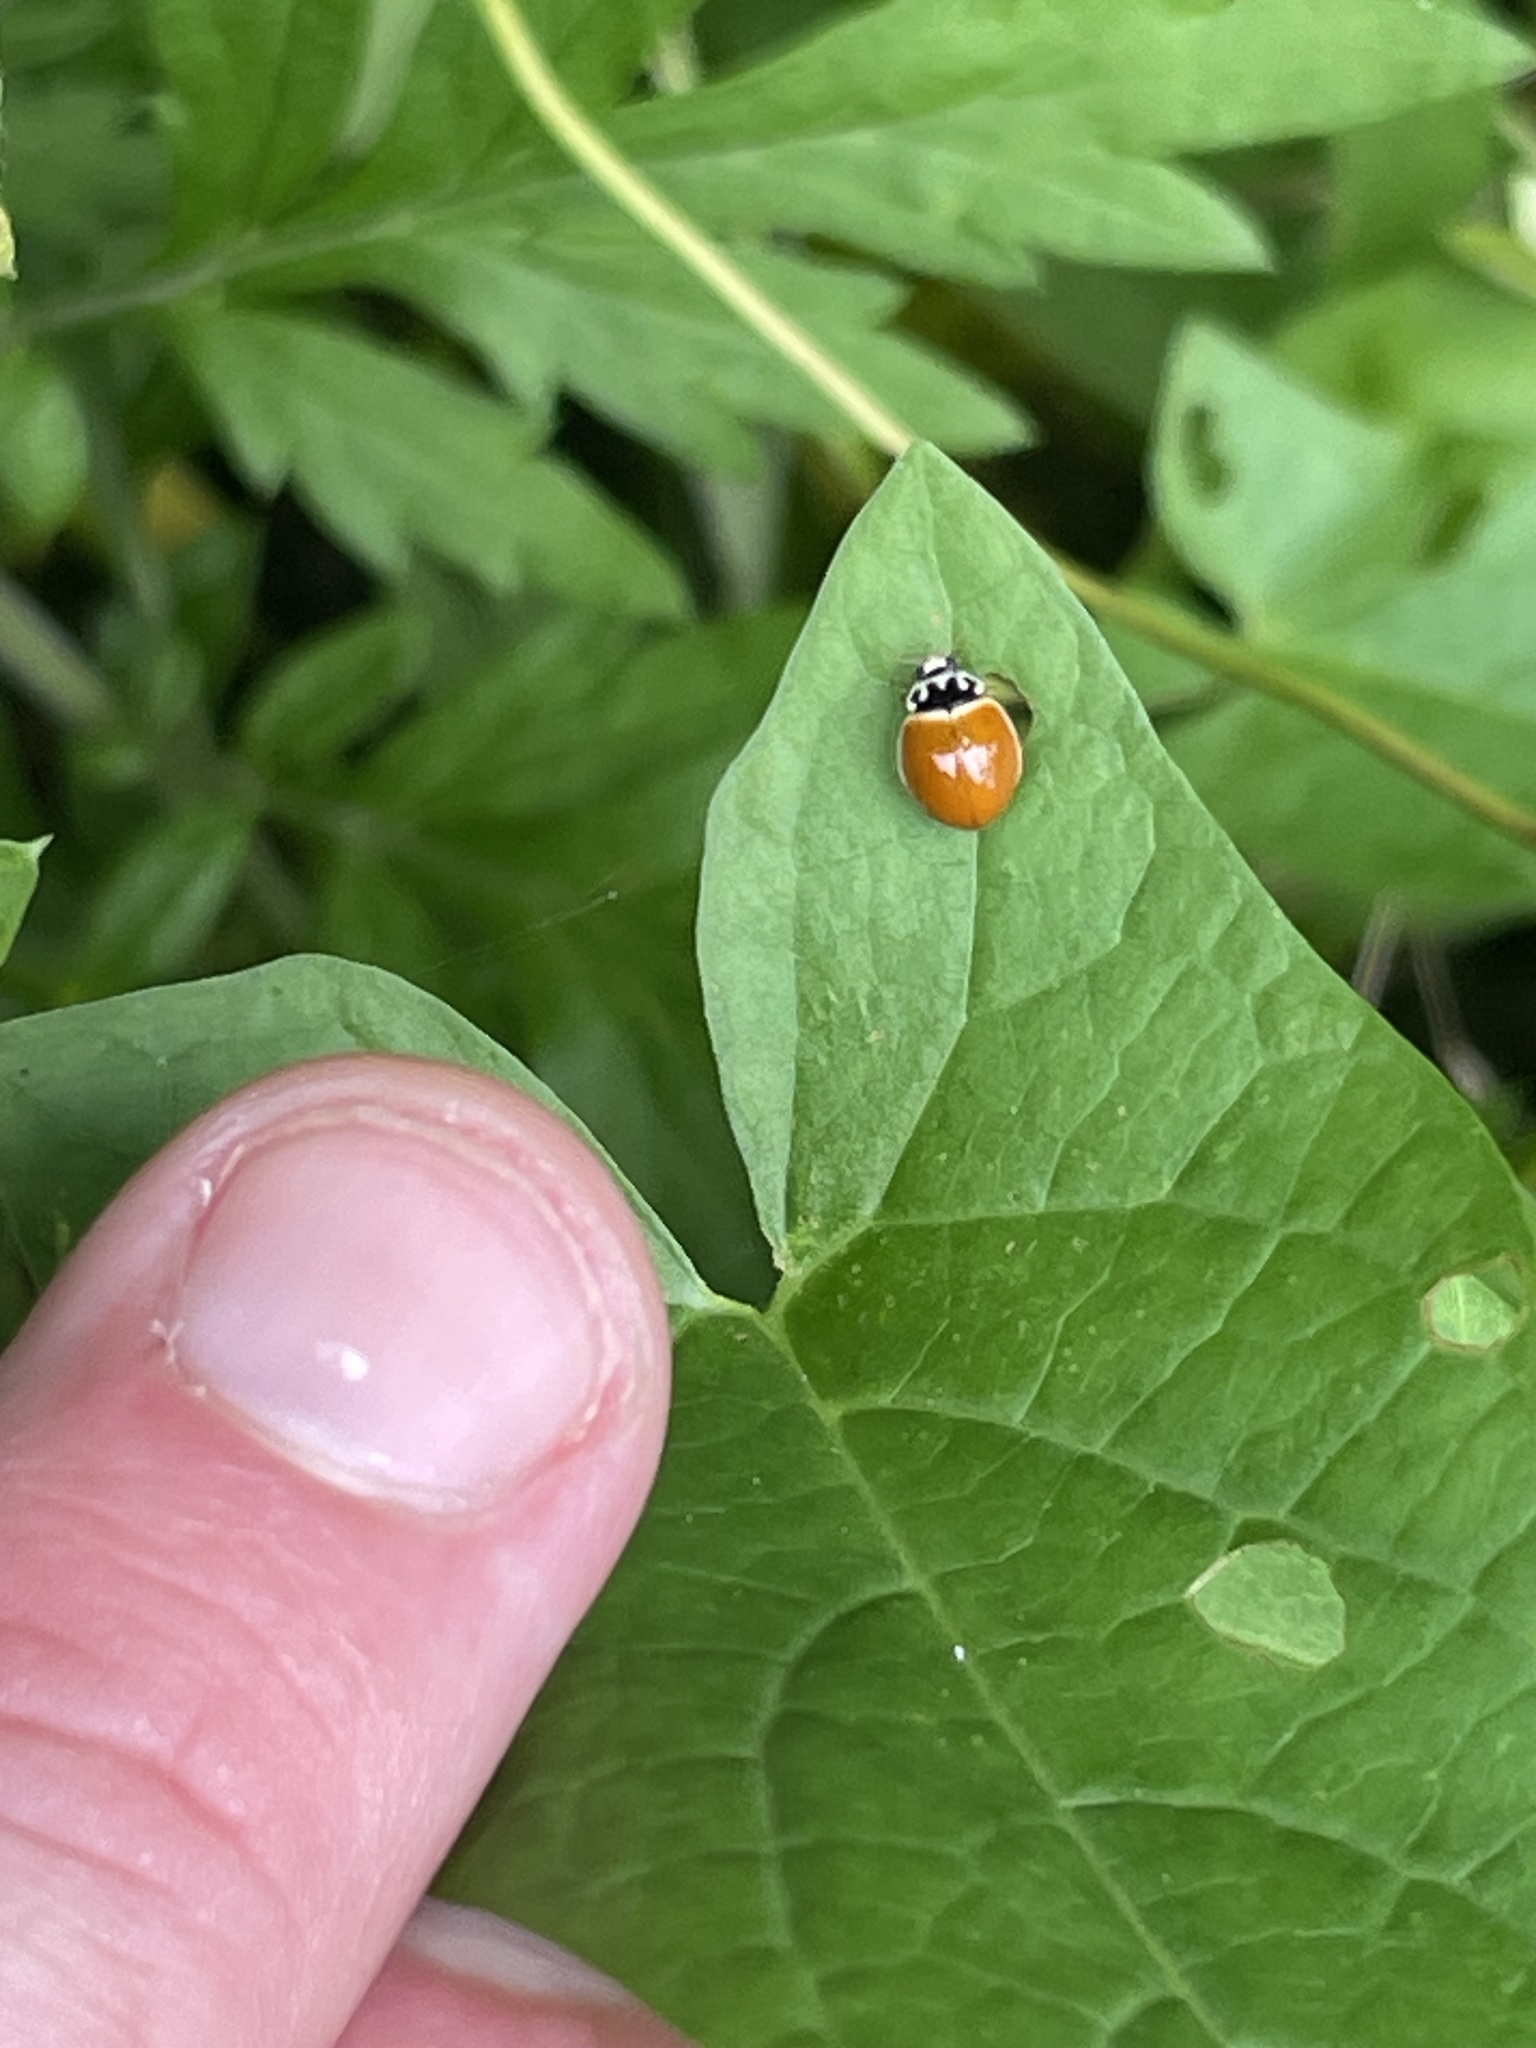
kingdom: Animalia
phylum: Arthropoda
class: Insecta
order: Coleoptera
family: Coccinellidae
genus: Cycloneda
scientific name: Cycloneda munda
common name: Polished lady beetle
